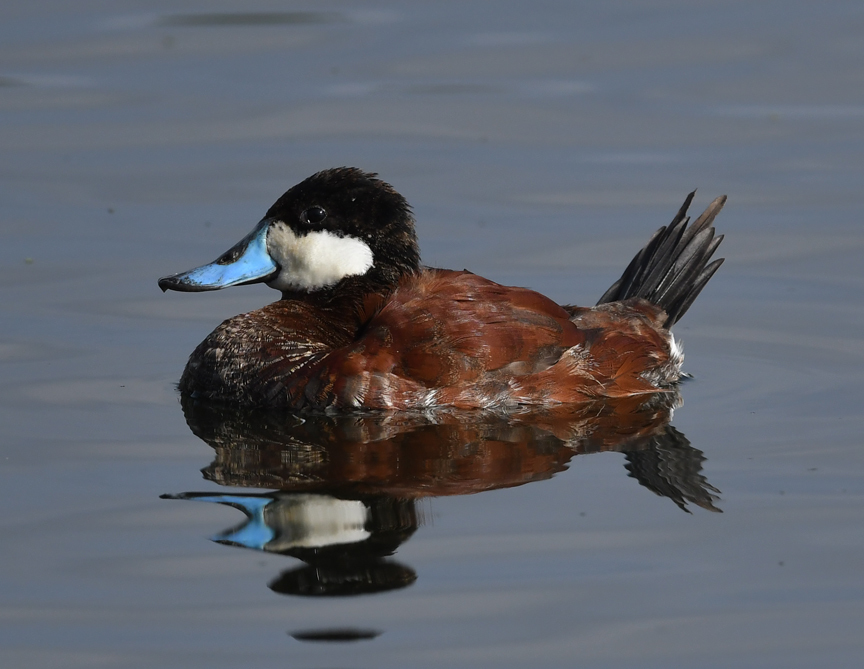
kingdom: Animalia
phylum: Chordata
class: Aves
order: Anseriformes
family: Anatidae
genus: Oxyura
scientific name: Oxyura jamaicensis
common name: Ruddy duck
